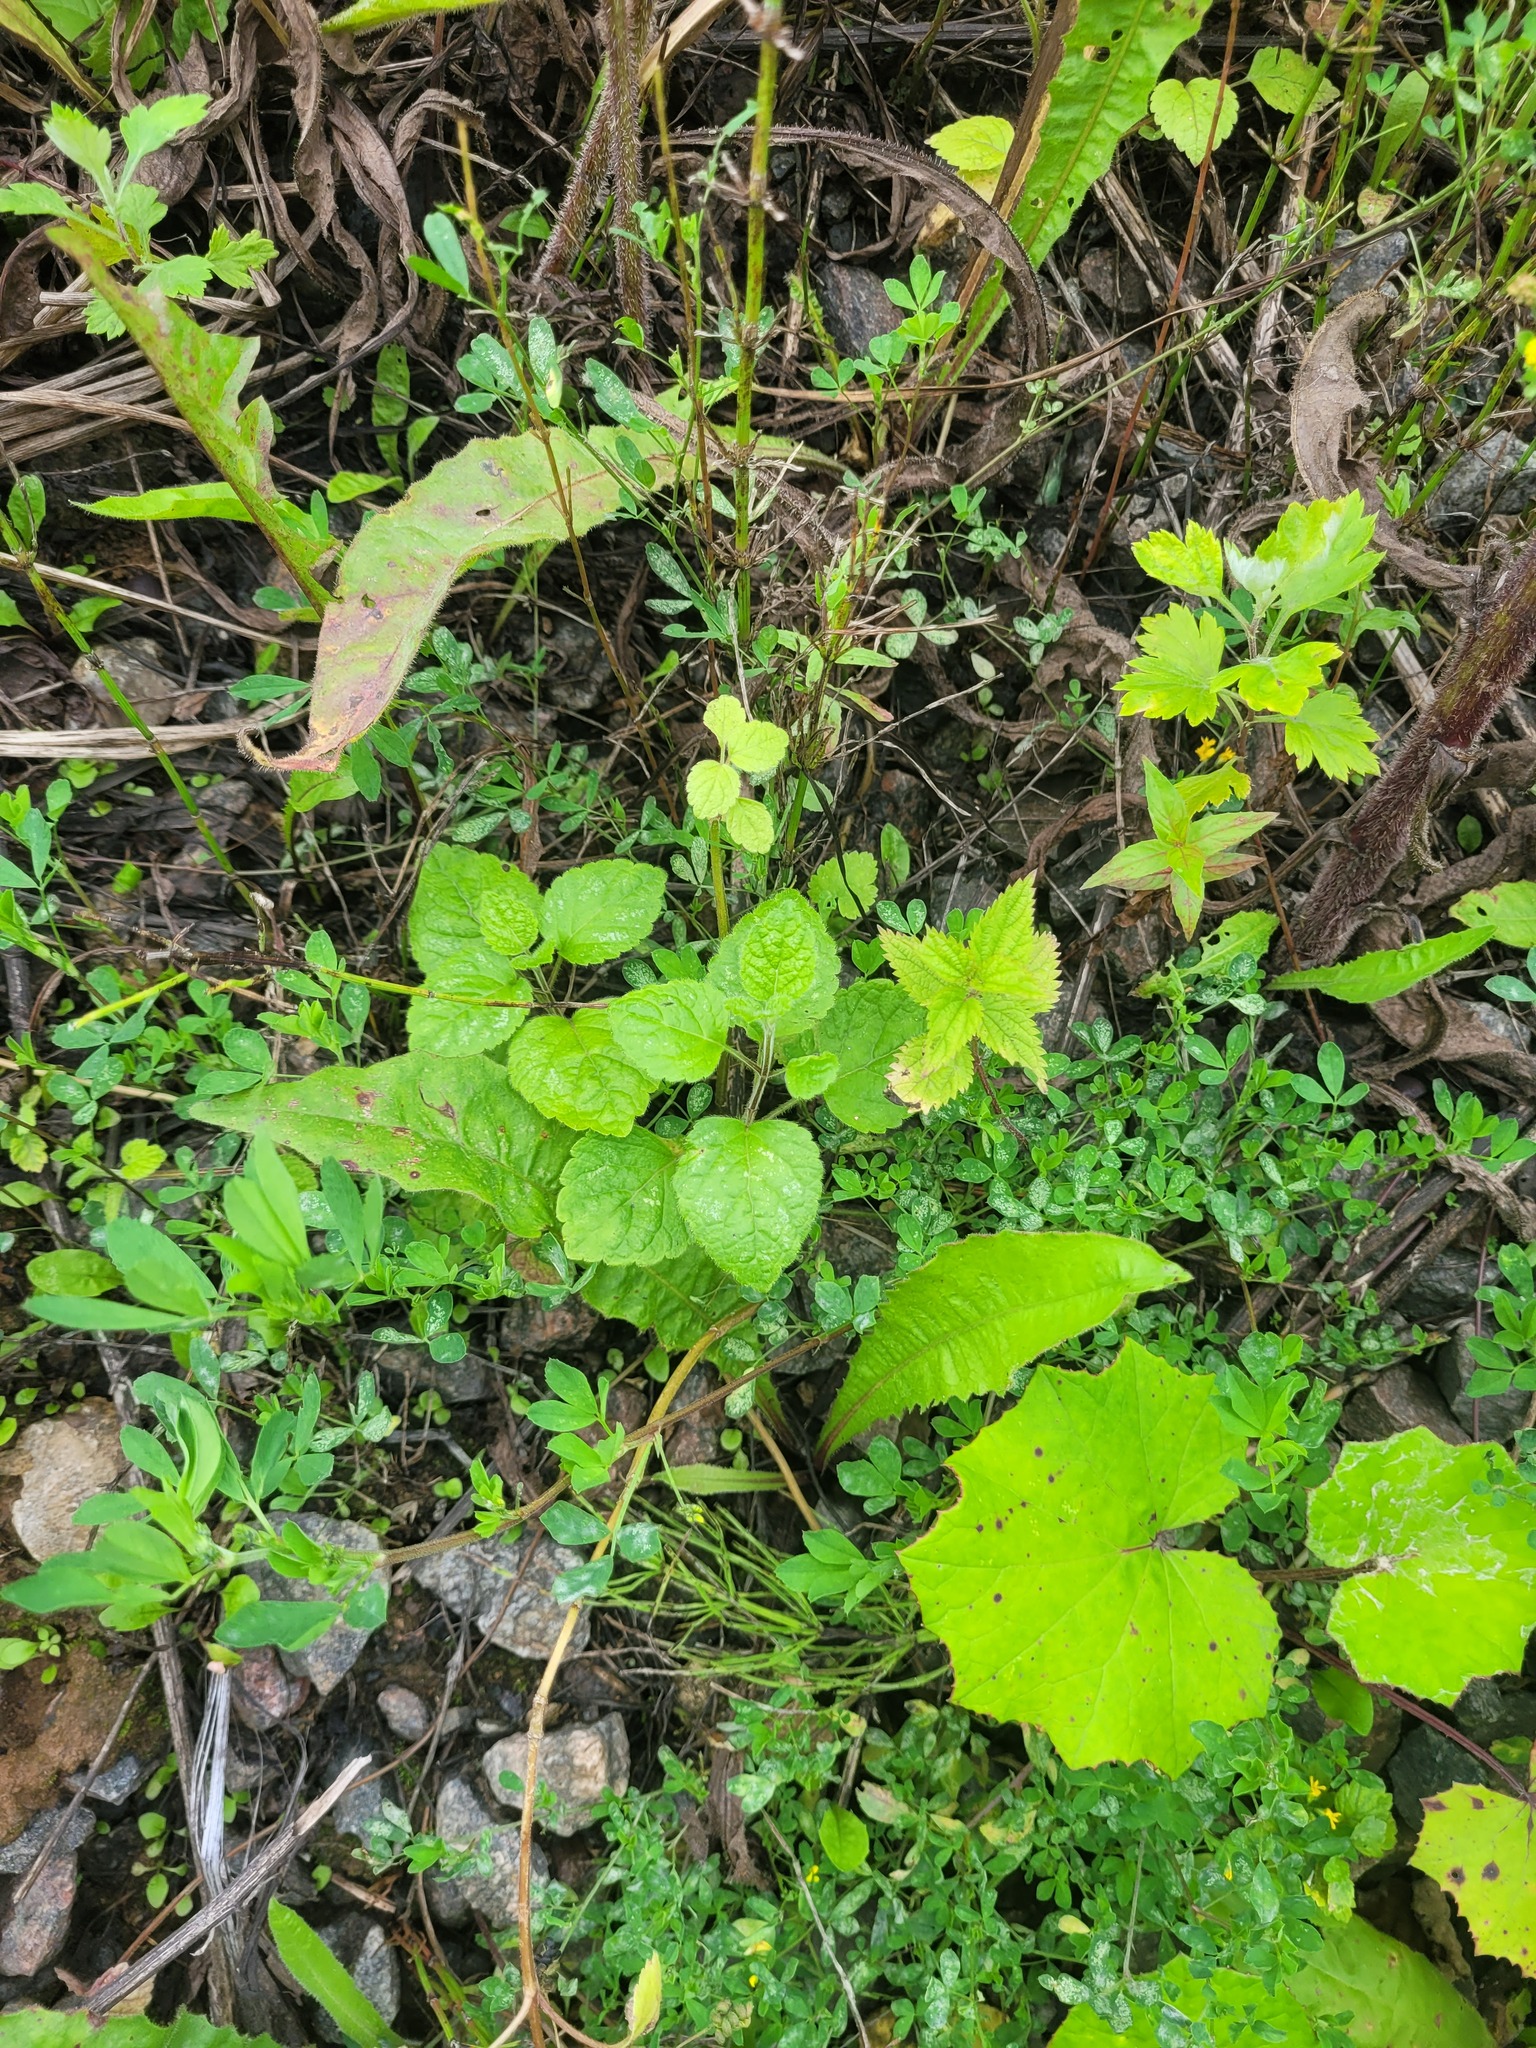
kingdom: Plantae
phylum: Tracheophyta
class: Magnoliopsida
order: Lamiales
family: Lamiaceae
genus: Lamium
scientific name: Lamium galeobdolon
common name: Yellow archangel
